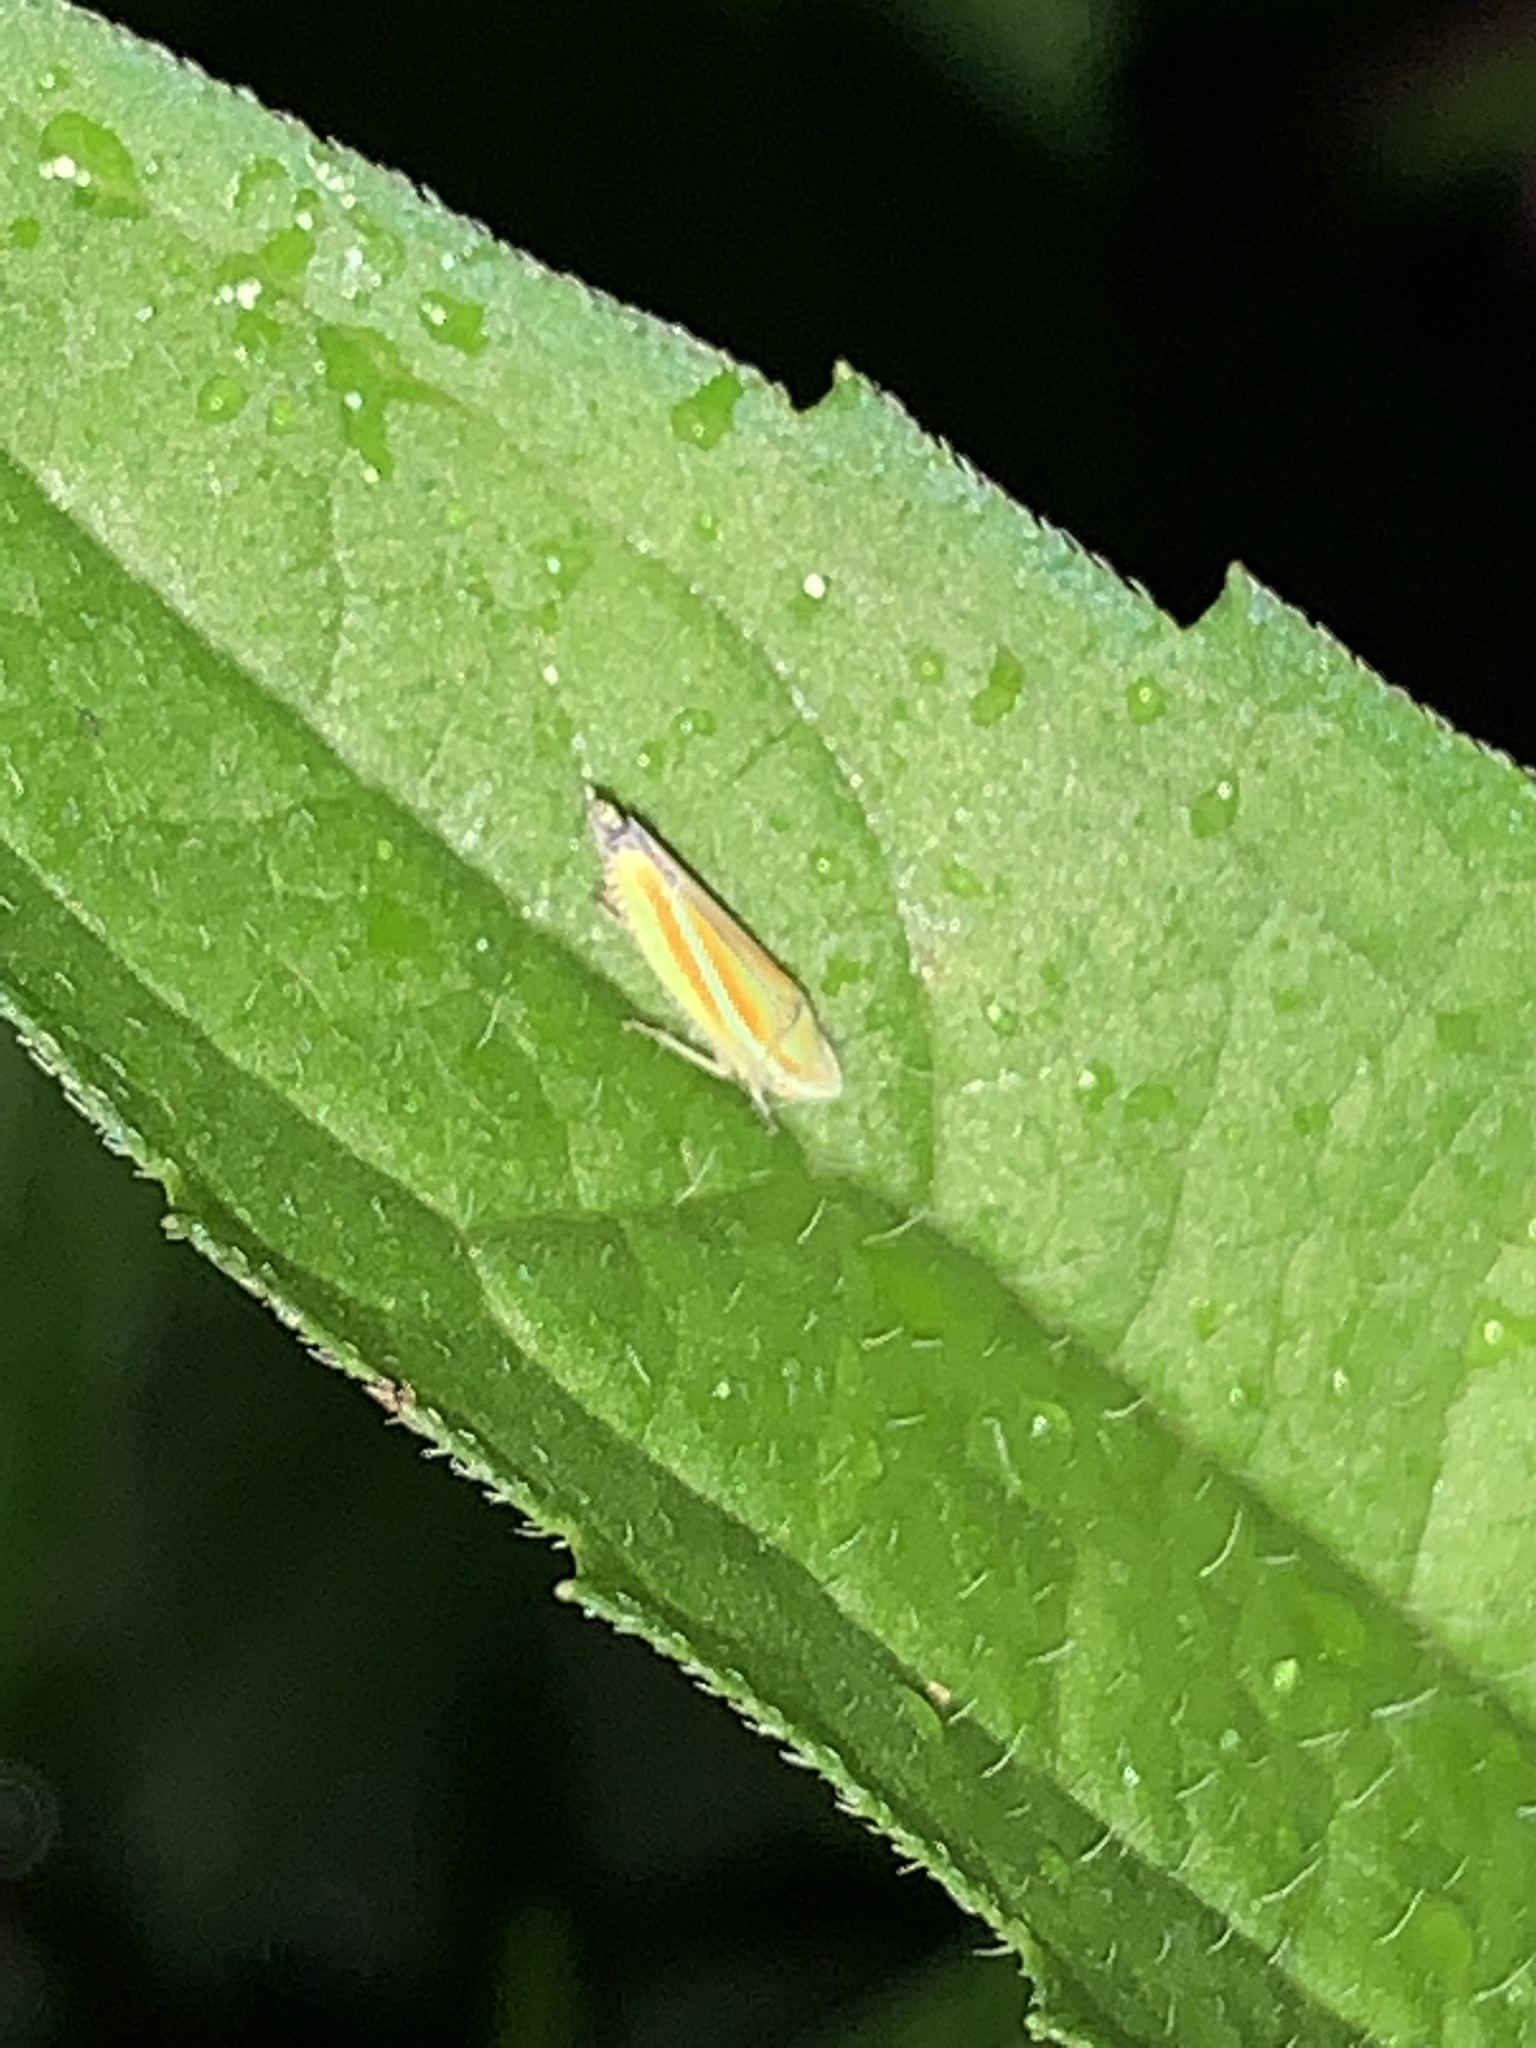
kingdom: Animalia
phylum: Arthropoda
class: Insecta
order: Hemiptera
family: Cicadellidae
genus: Graphocephala
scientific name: Graphocephala versuta
